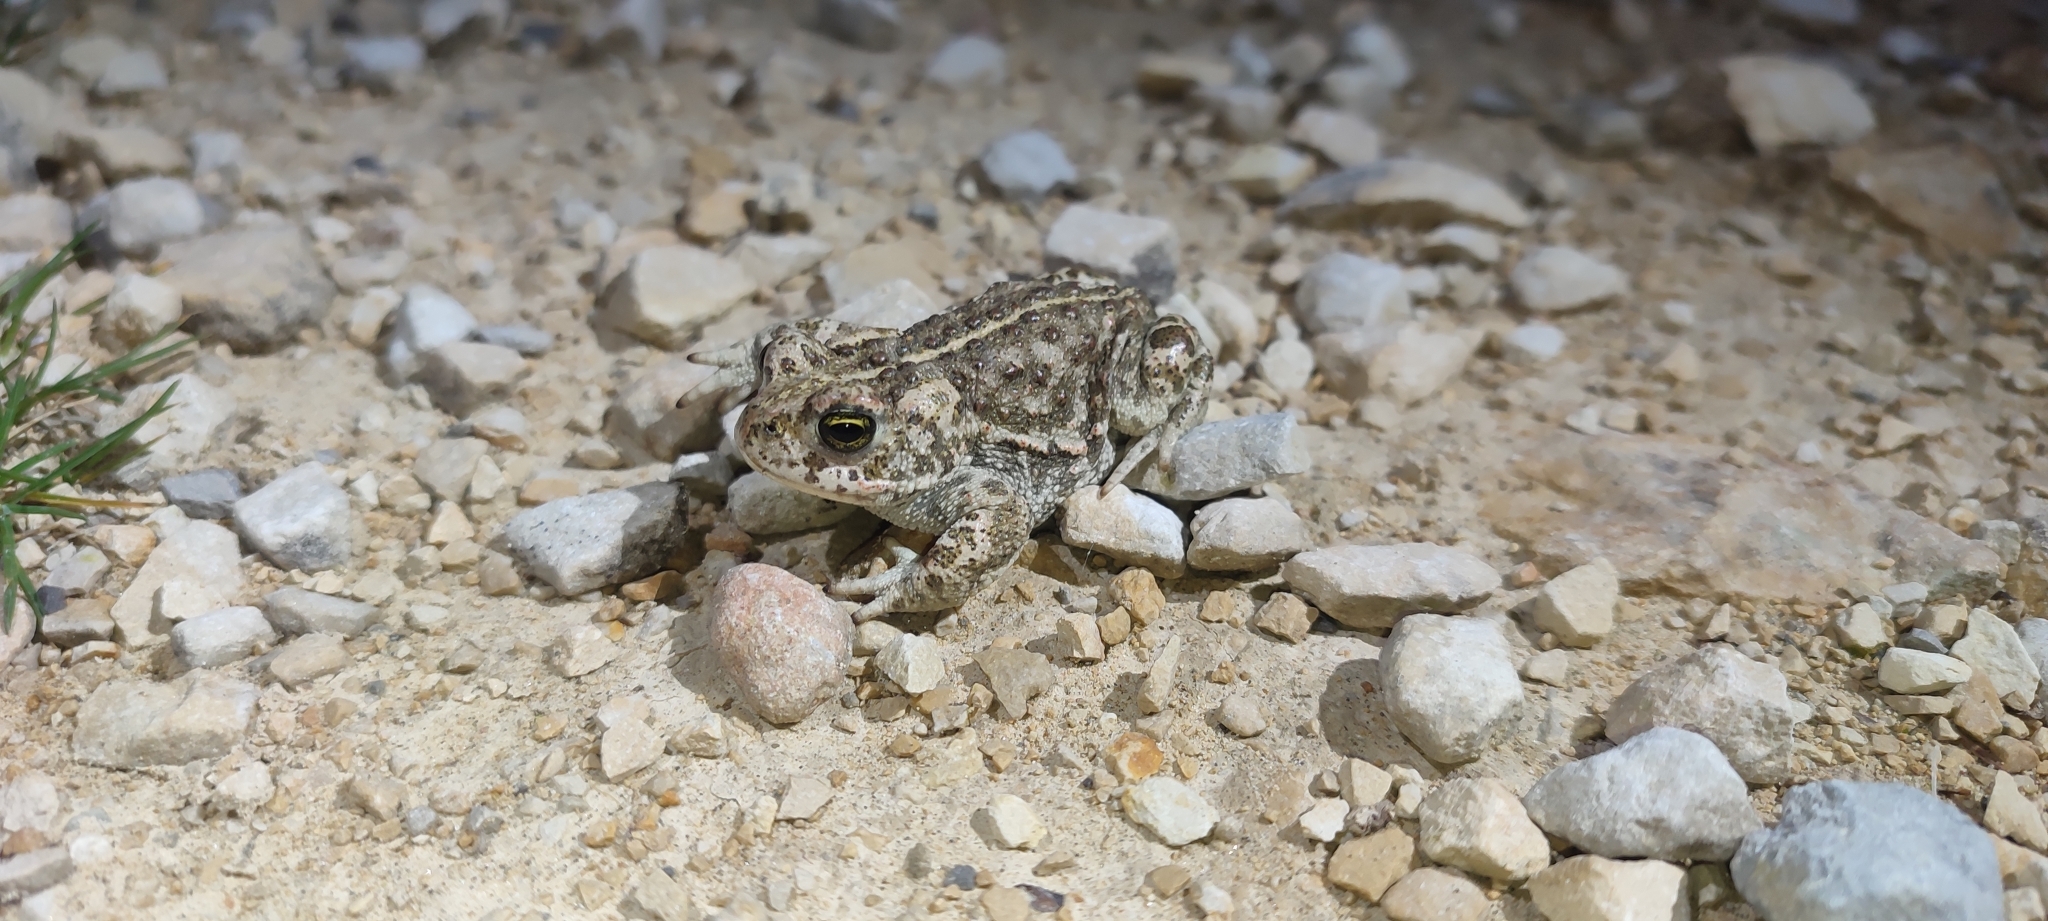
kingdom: Animalia
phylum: Chordata
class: Amphibia
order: Anura
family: Bufonidae
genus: Epidalea
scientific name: Epidalea calamita
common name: Natterjack toad
